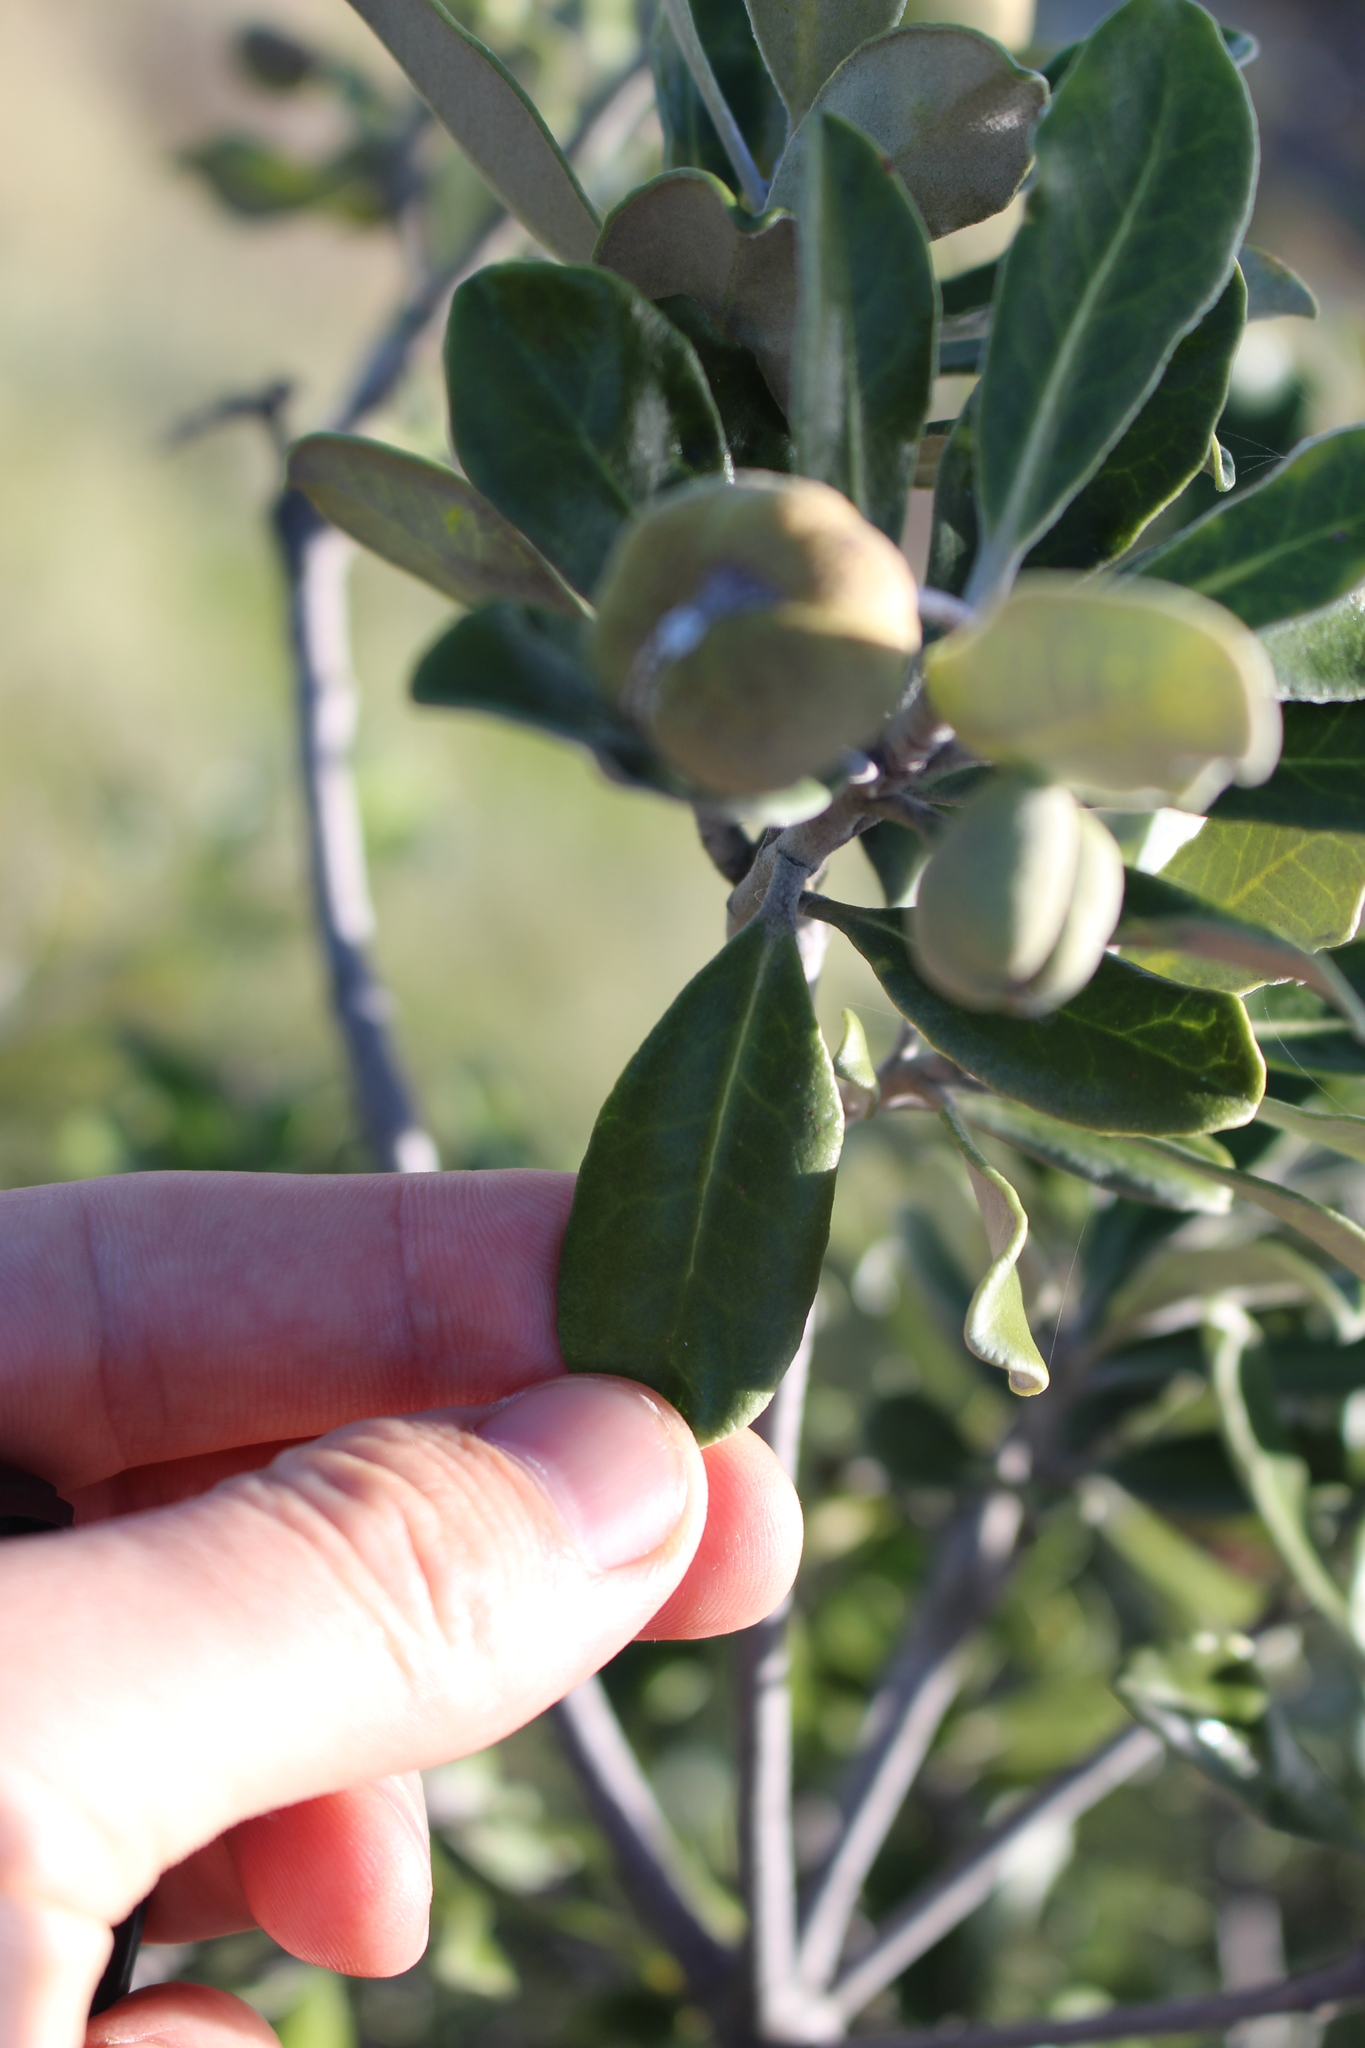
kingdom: Plantae
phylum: Tracheophyta
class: Magnoliopsida
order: Apiales
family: Pittosporaceae
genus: Pittosporum
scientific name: Pittosporum crassifolium
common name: Karo
